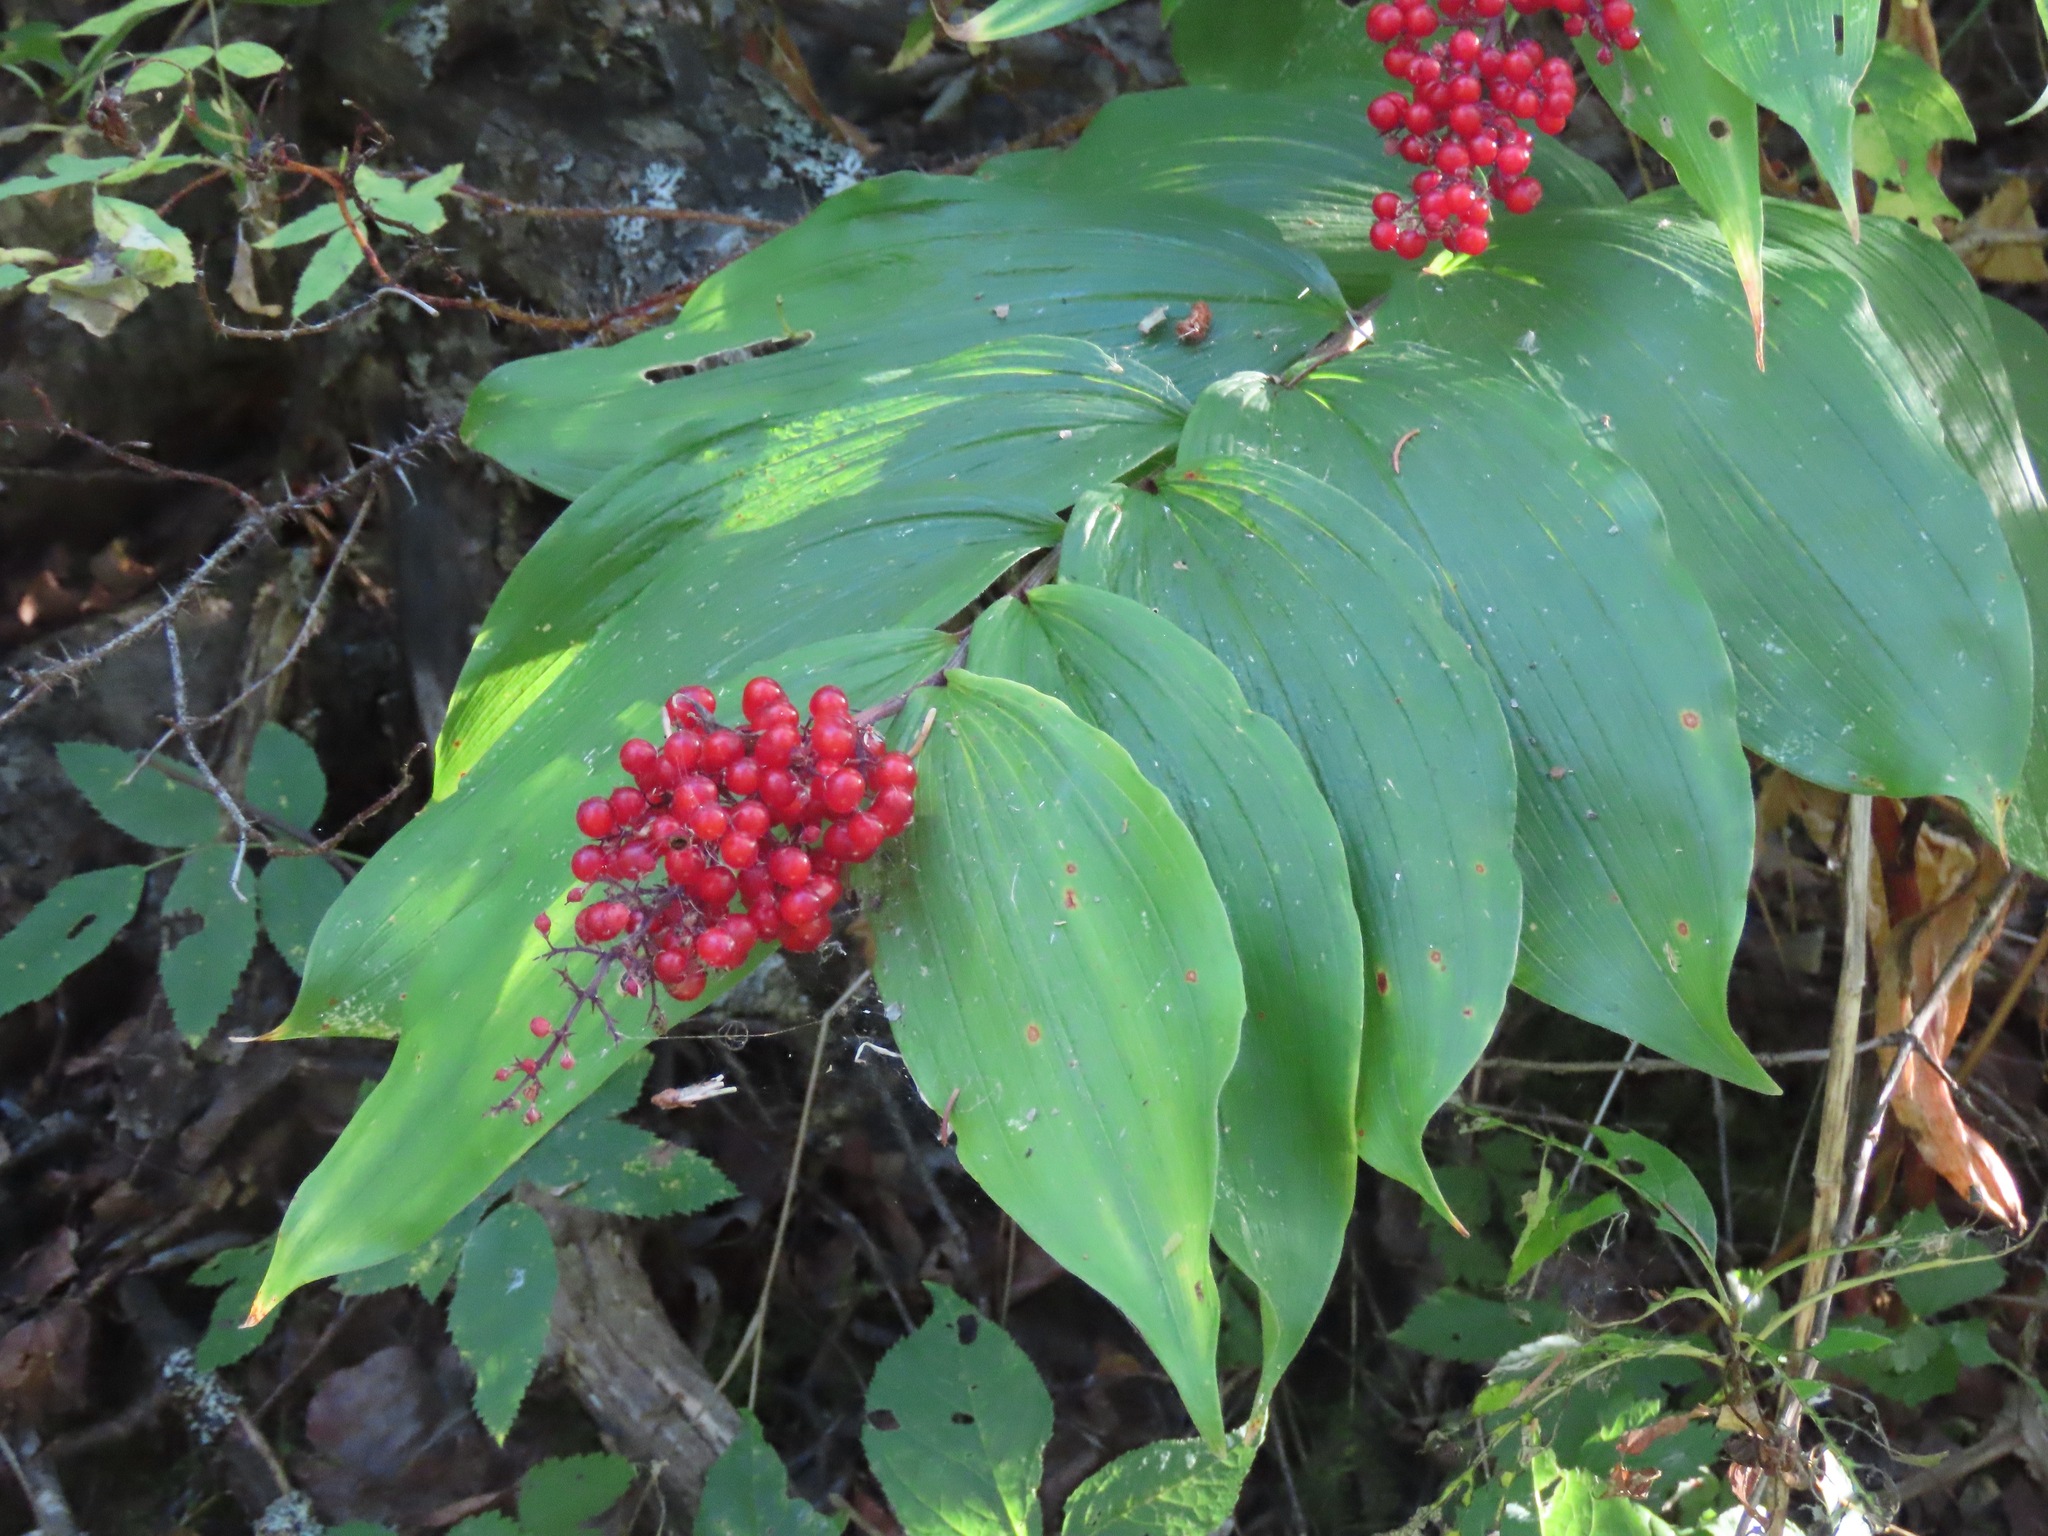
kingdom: Plantae
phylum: Tracheophyta
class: Liliopsida
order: Asparagales
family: Asparagaceae
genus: Maianthemum
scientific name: Maianthemum racemosum
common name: False spikenard
